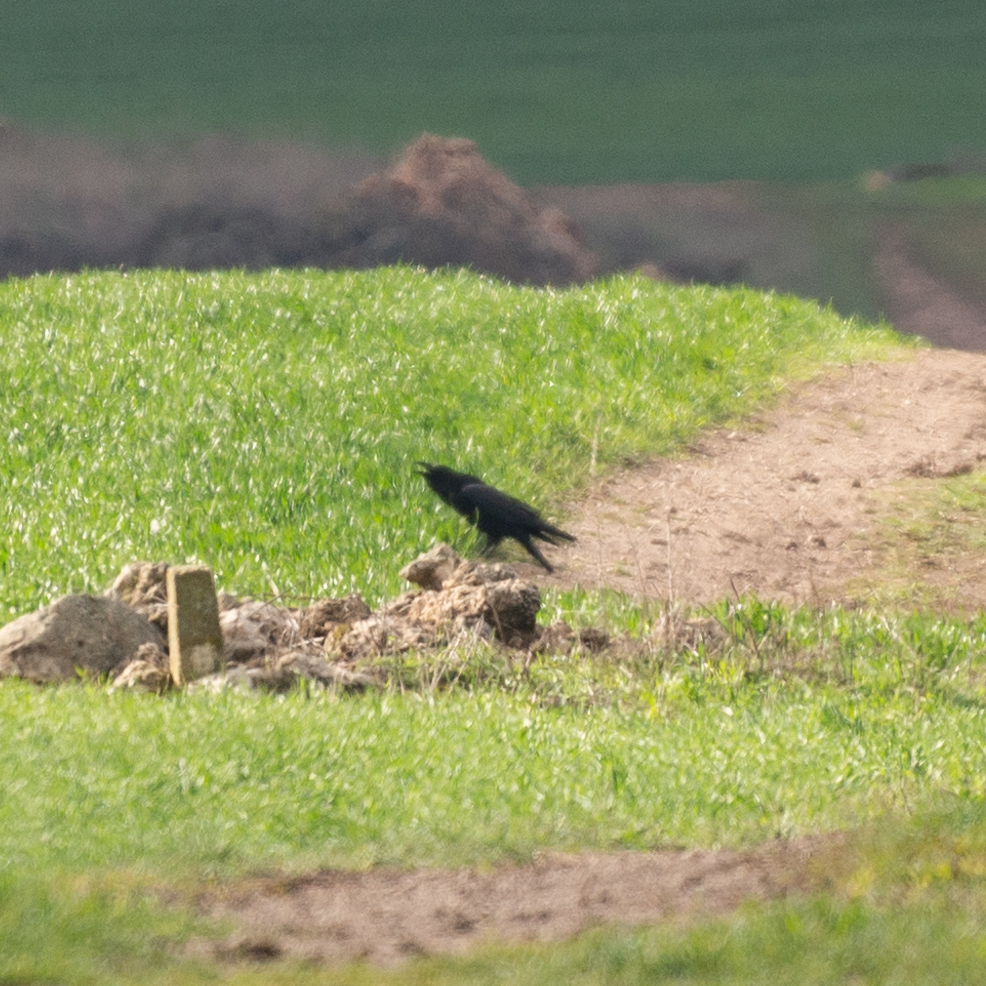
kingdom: Animalia
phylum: Chordata
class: Aves
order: Passeriformes
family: Corvidae
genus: Corvus
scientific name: Corvus corax
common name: Common raven
